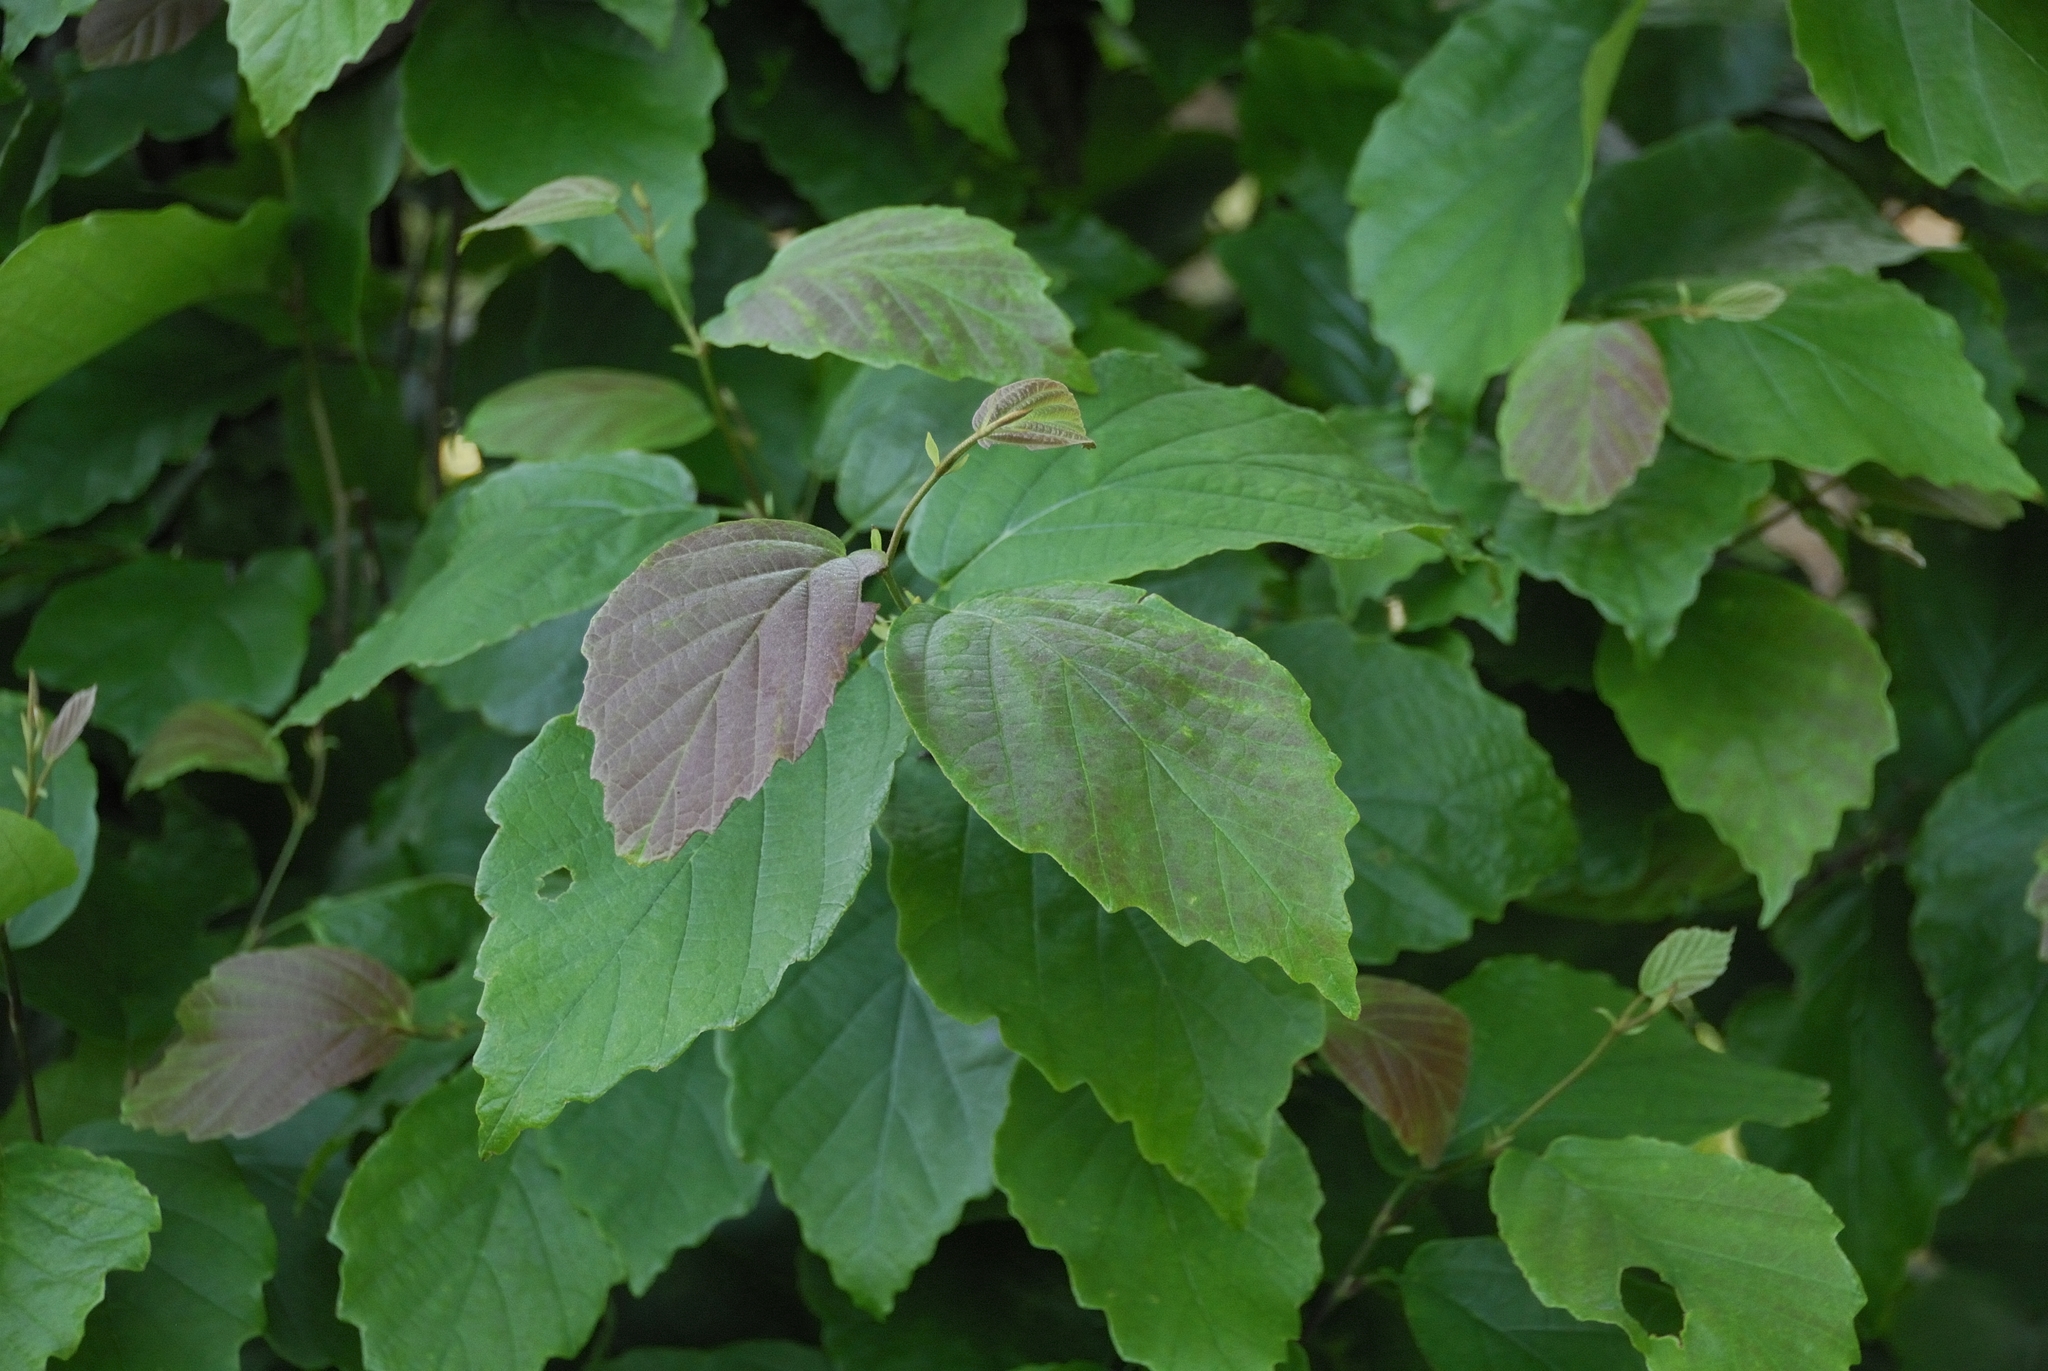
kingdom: Plantae
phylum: Tracheophyta
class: Magnoliopsida
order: Saxifragales
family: Hamamelidaceae
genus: Hamamelis
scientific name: Hamamelis virginiana
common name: Witch-hazel
